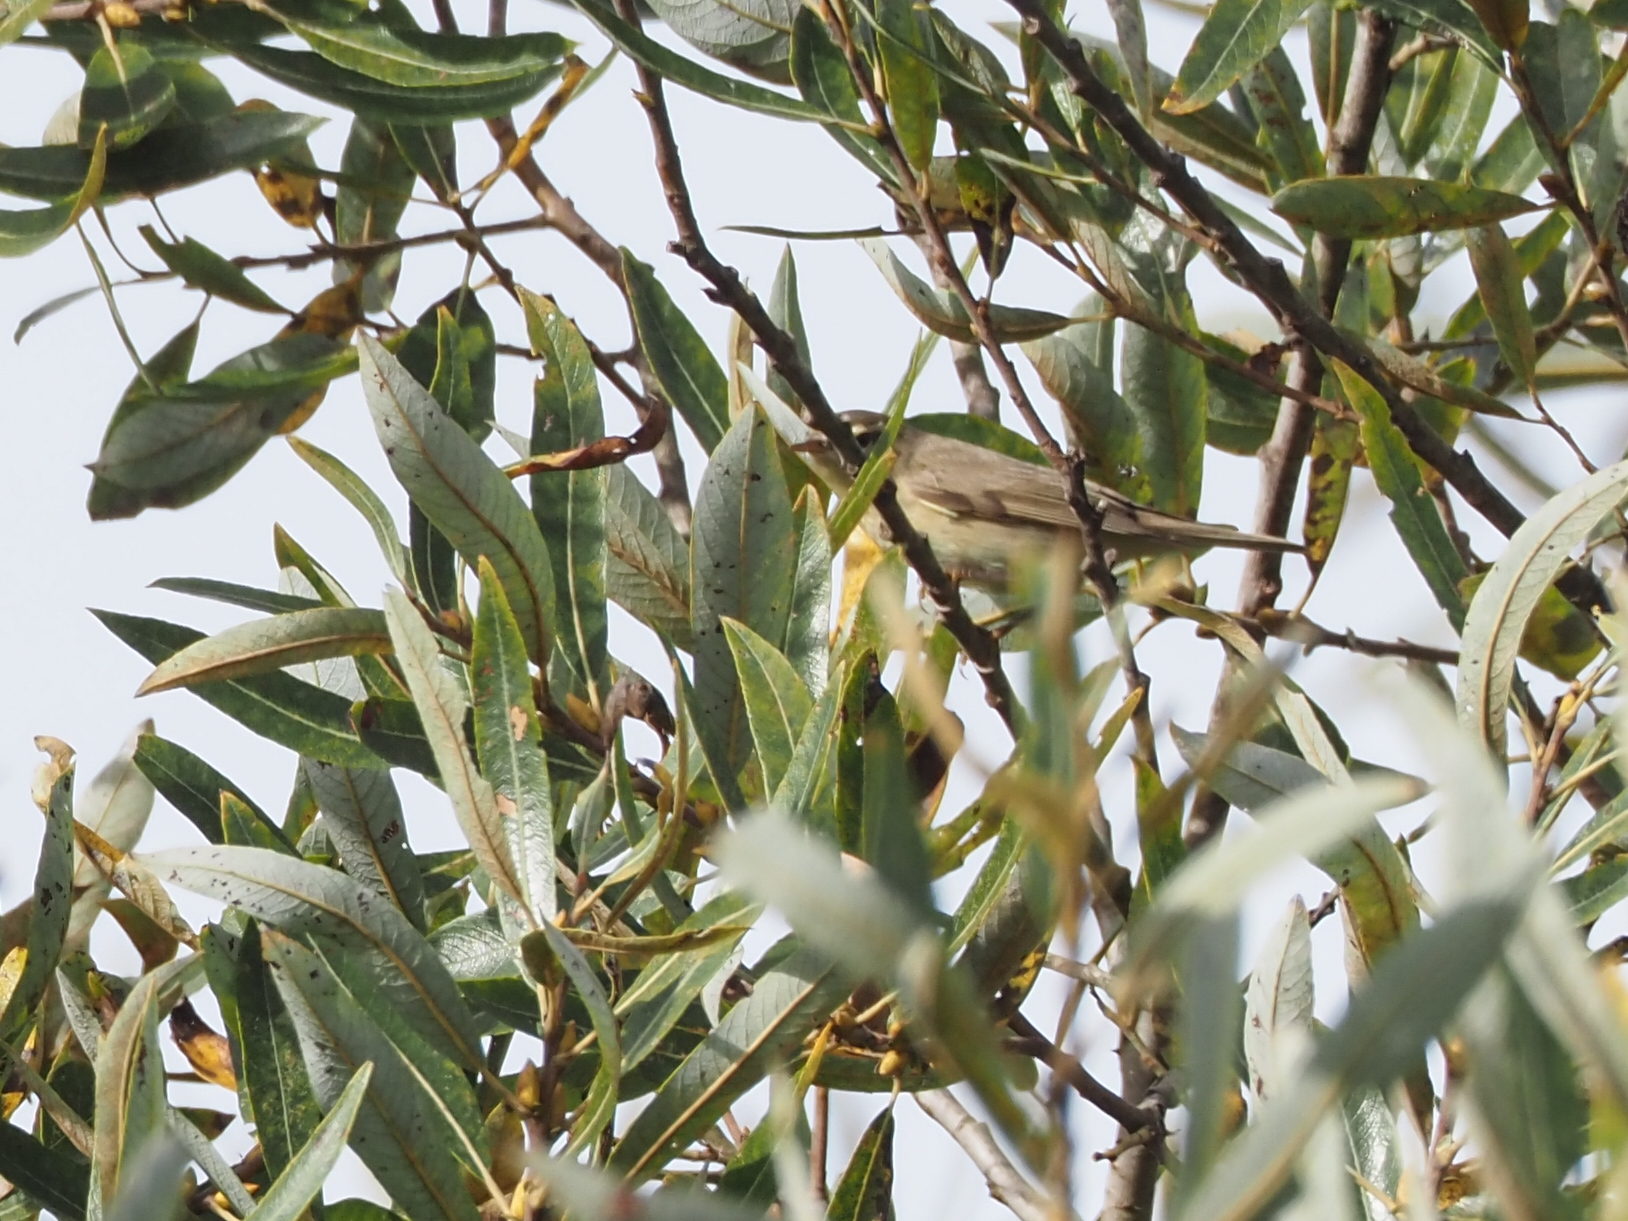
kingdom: Animalia
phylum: Chordata
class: Aves
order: Passeriformes
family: Phylloscopidae
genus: Phylloscopus
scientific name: Phylloscopus trochilus
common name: Willow warbler
